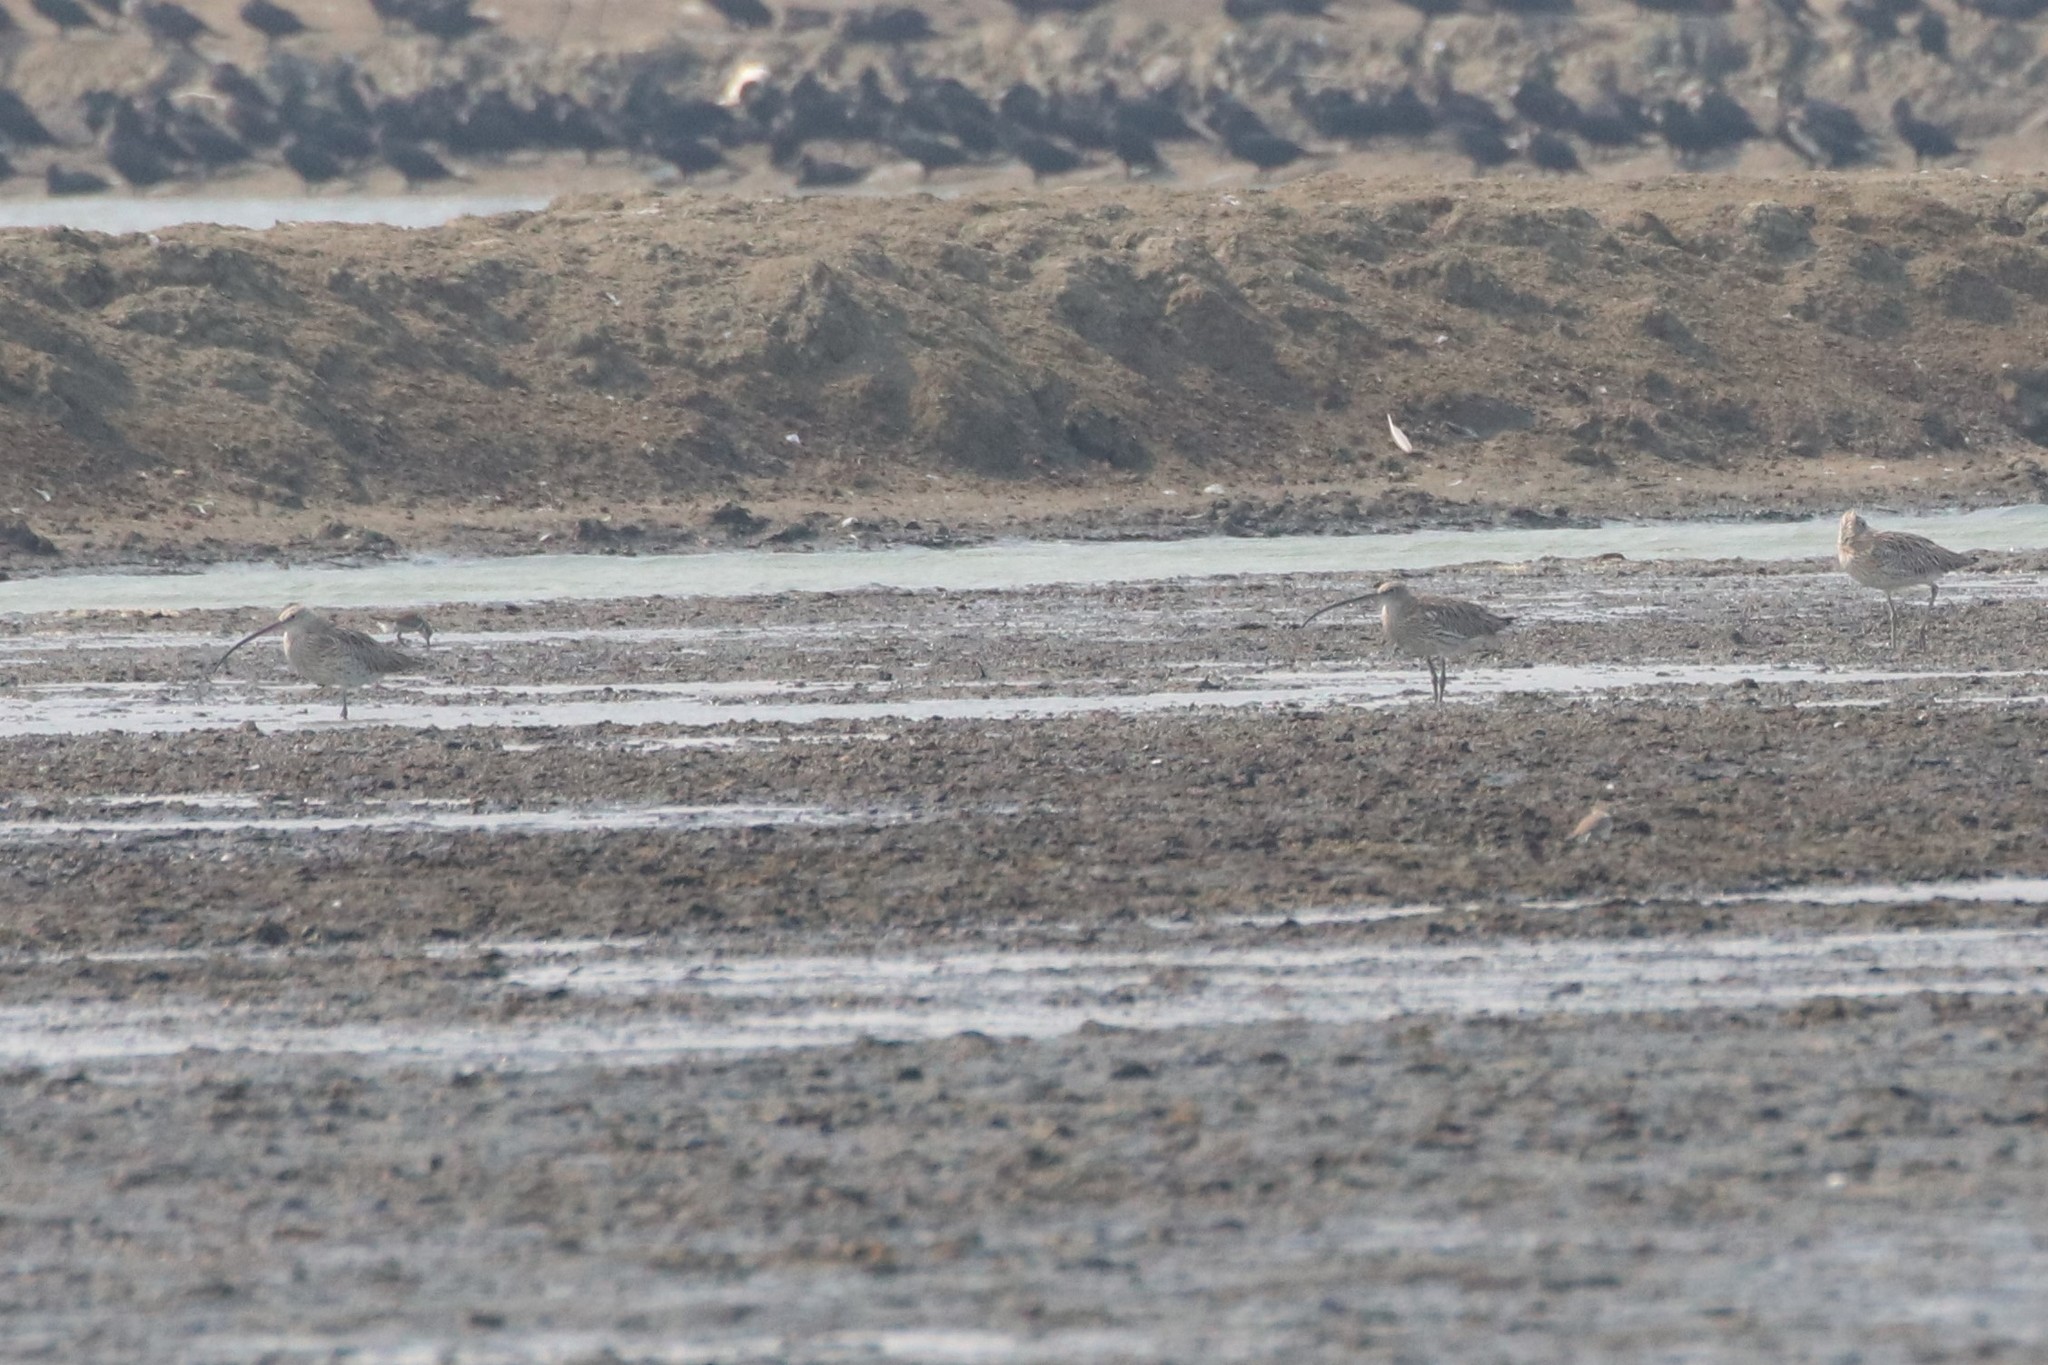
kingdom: Animalia
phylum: Chordata
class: Aves
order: Charadriiformes
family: Scolopacidae
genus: Numenius
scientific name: Numenius arquata
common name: Eurasian curlew
